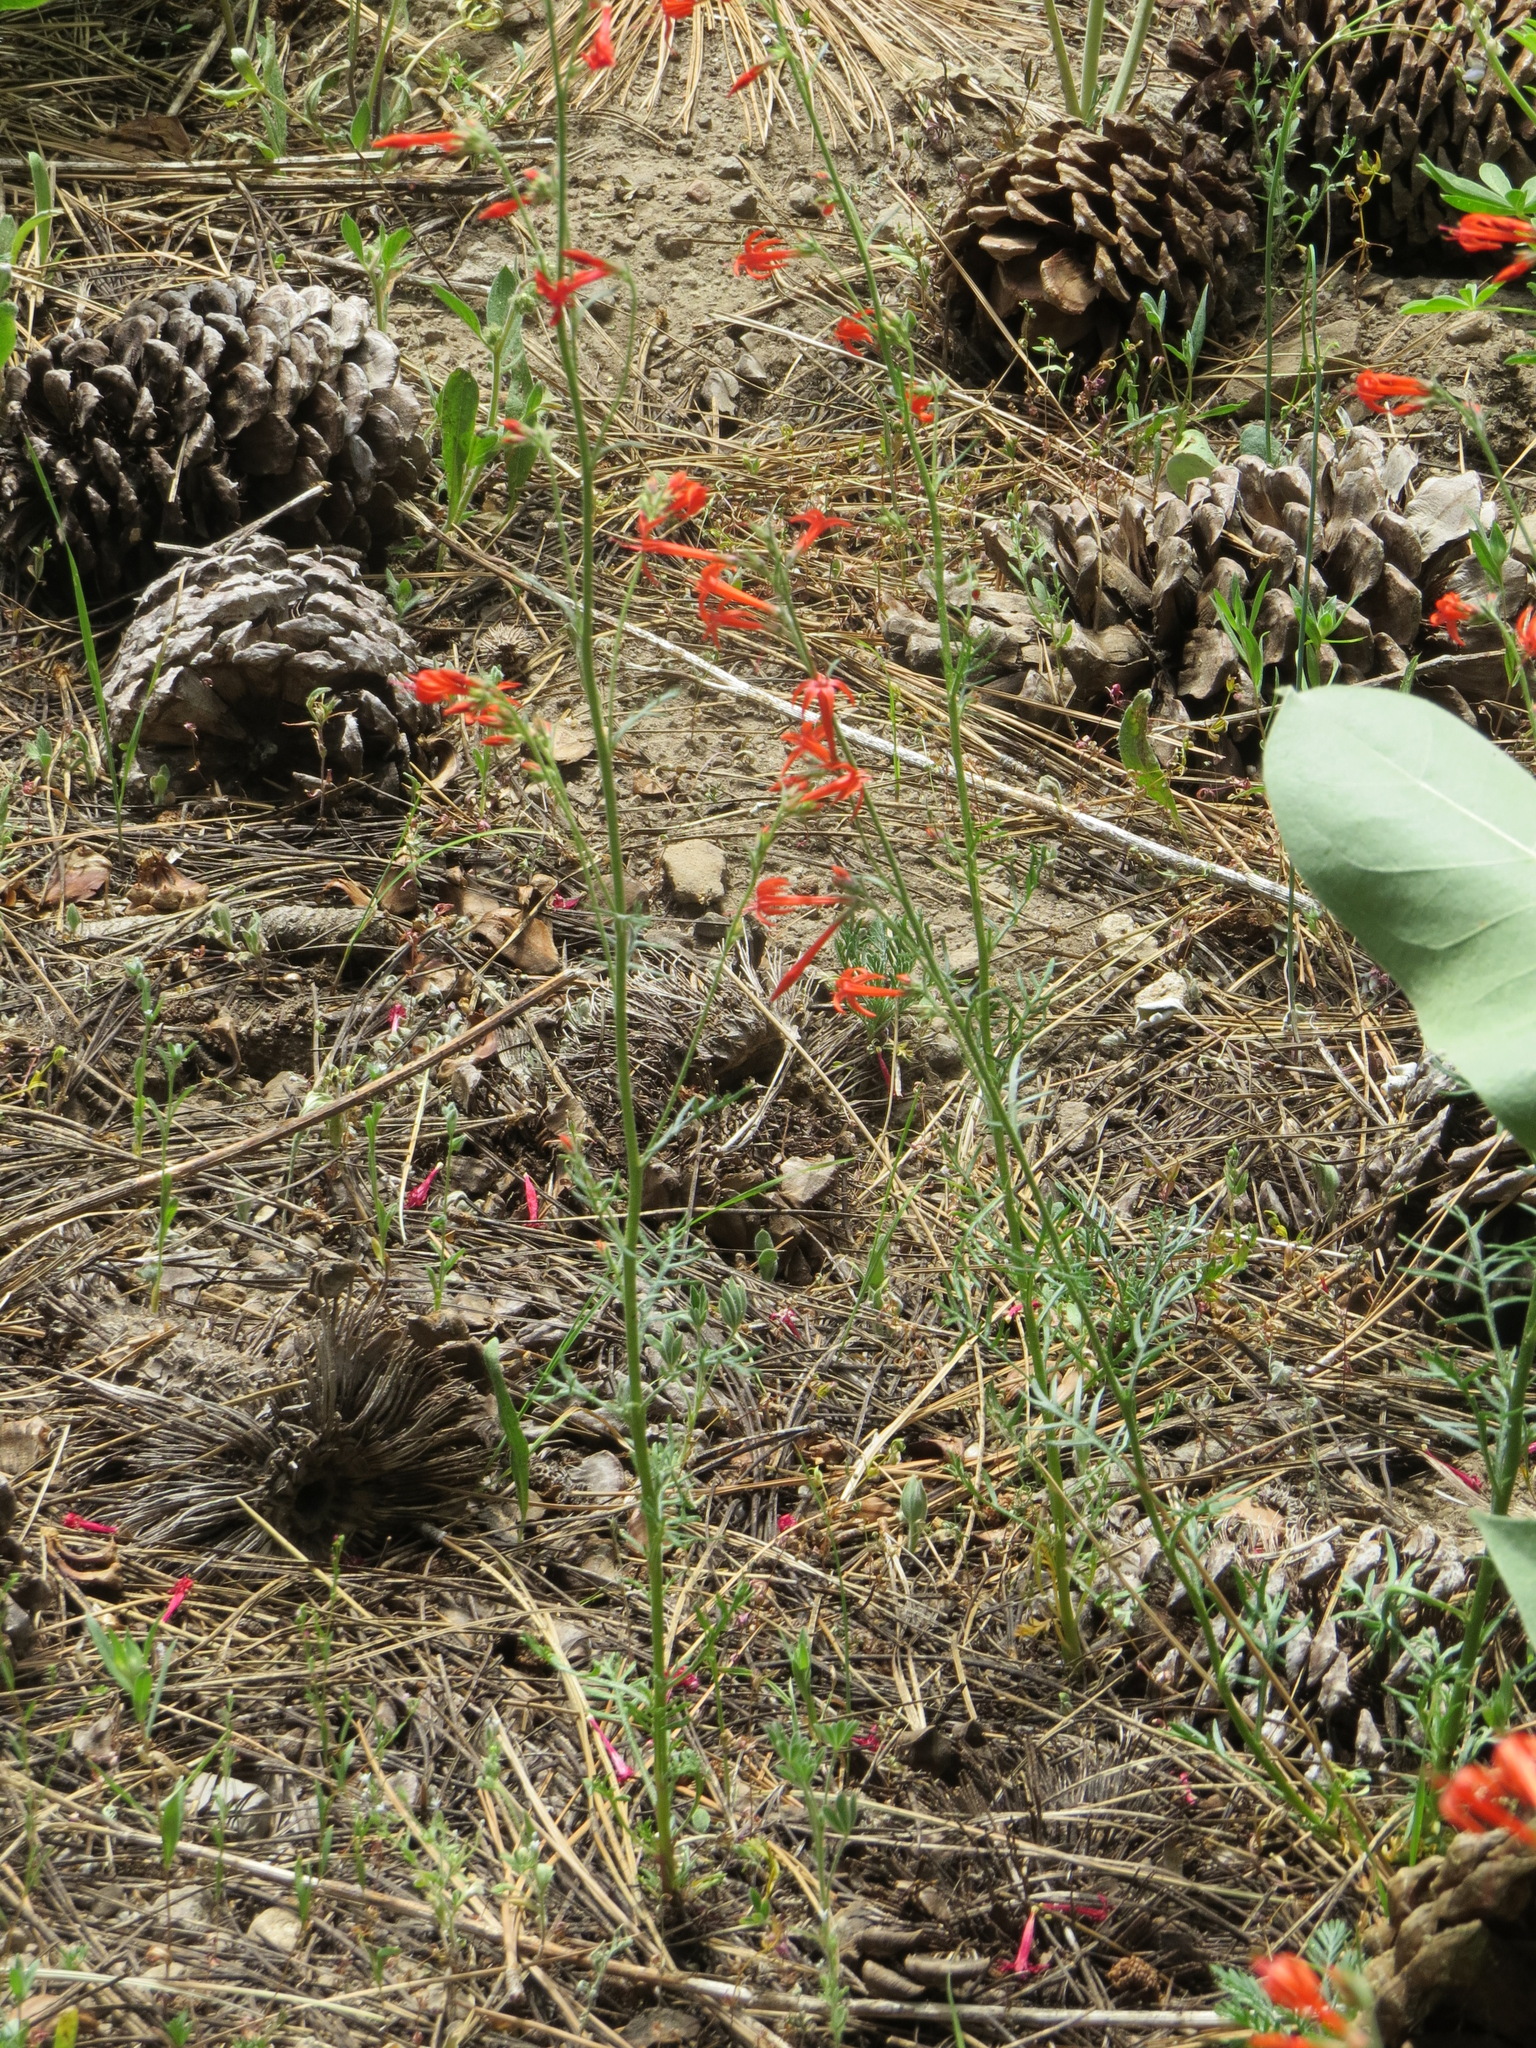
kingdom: Plantae
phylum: Tracheophyta
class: Magnoliopsida
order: Ericales
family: Polemoniaceae
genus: Ipomopsis
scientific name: Ipomopsis aggregata
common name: Scarlet gilia
